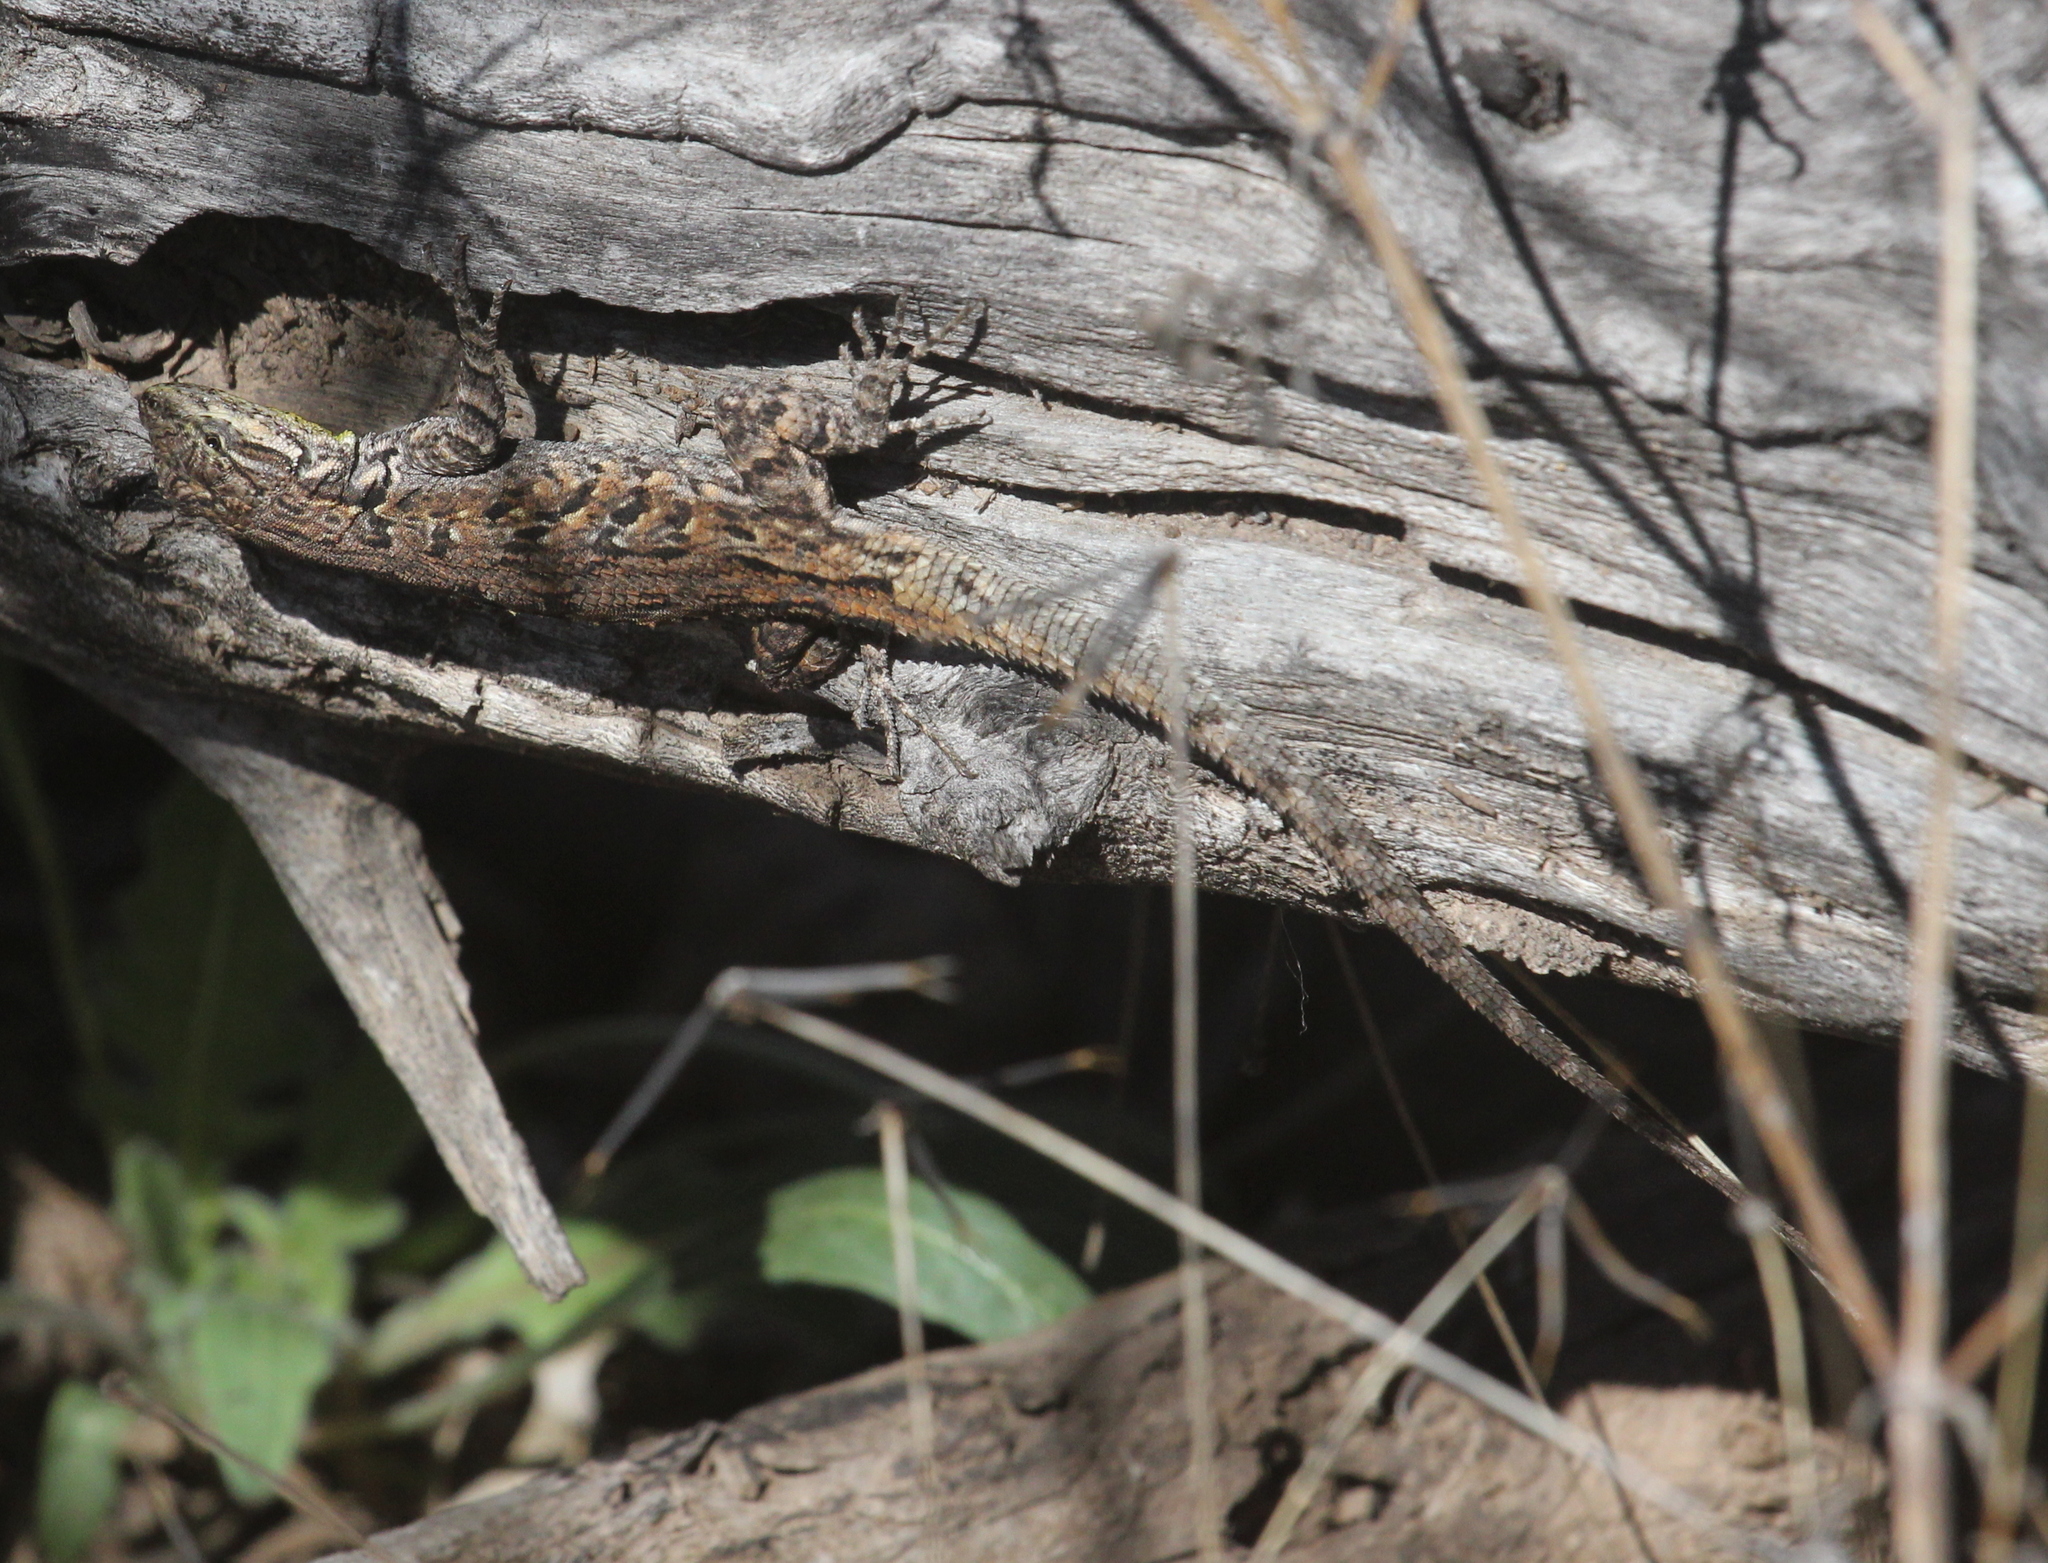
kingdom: Animalia
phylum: Chordata
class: Squamata
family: Phrynosomatidae
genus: Urosaurus
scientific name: Urosaurus ornatus
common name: Ornate tree lizard
